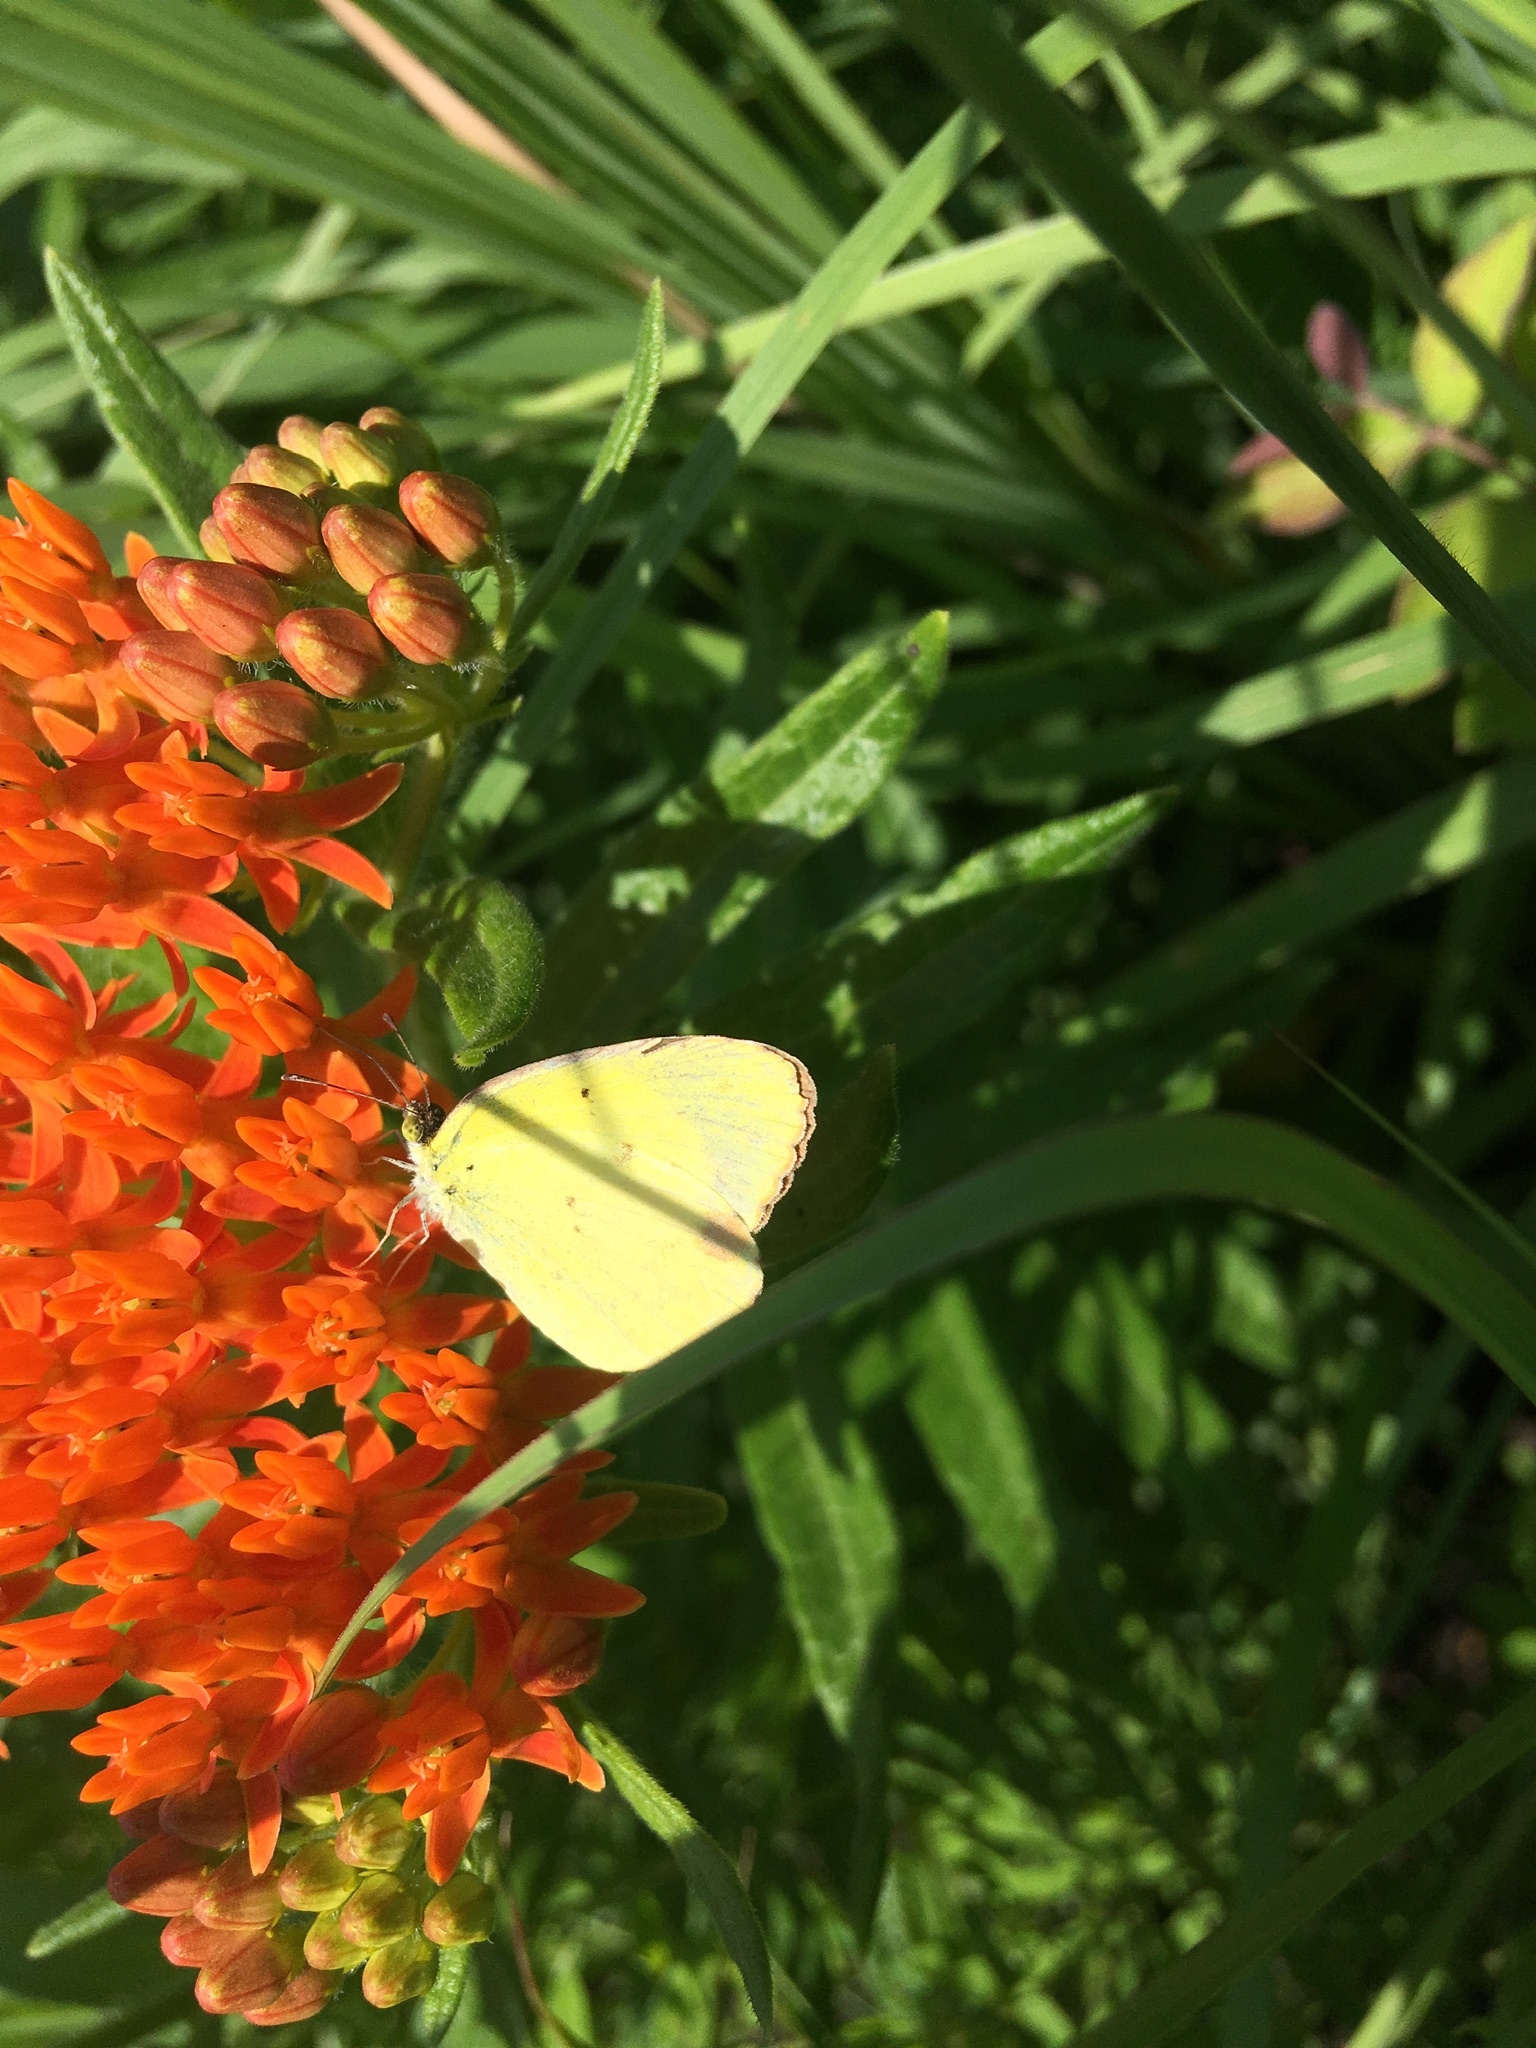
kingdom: Animalia
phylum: Arthropoda
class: Insecta
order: Lepidoptera
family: Pieridae
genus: Pyrisitia
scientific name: Pyrisitia lisa
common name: Little yellow
